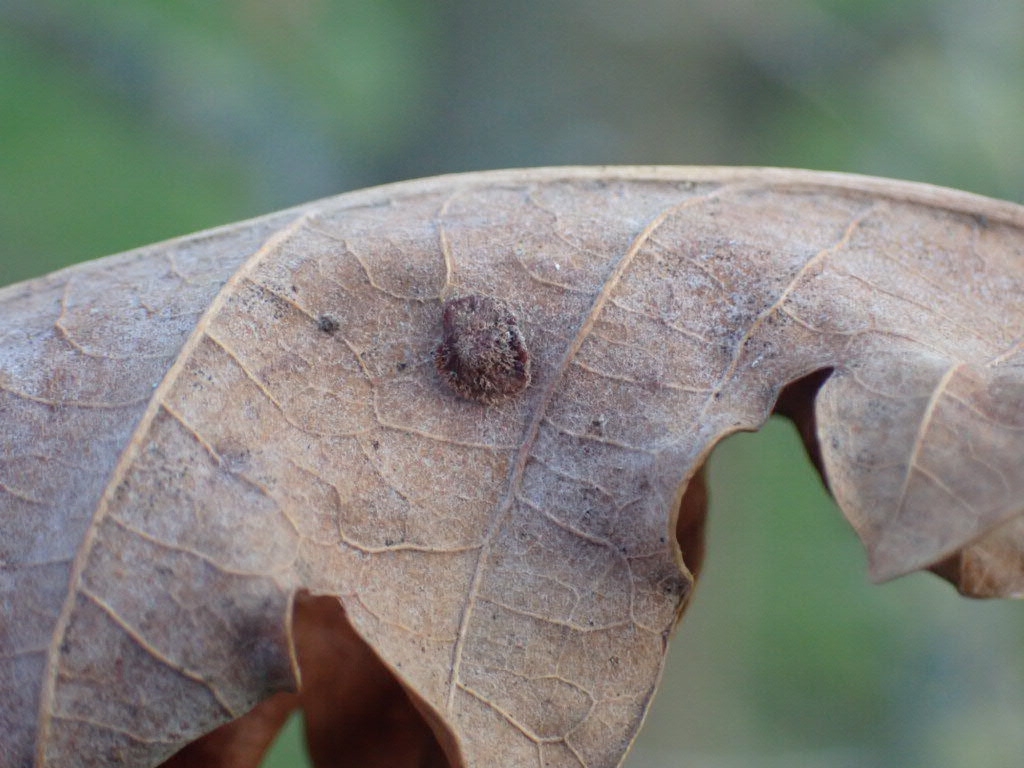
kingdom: Animalia
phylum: Arthropoda
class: Insecta
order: Hymenoptera
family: Cynipidae
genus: Neuroterus
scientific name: Neuroterus quercusbaccarum
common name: Common spangle gall
